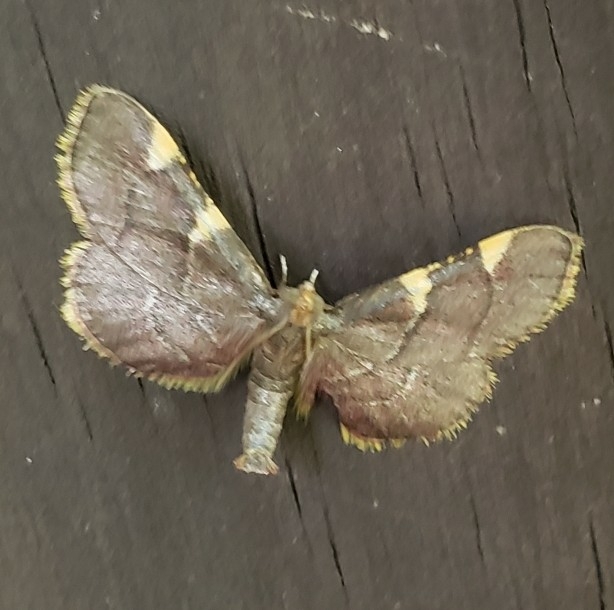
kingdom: Animalia
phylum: Arthropoda
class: Insecta
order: Lepidoptera
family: Pyralidae
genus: Hypsopygia
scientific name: Hypsopygia olinalis
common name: Yellow-fringed dolichomia moth
